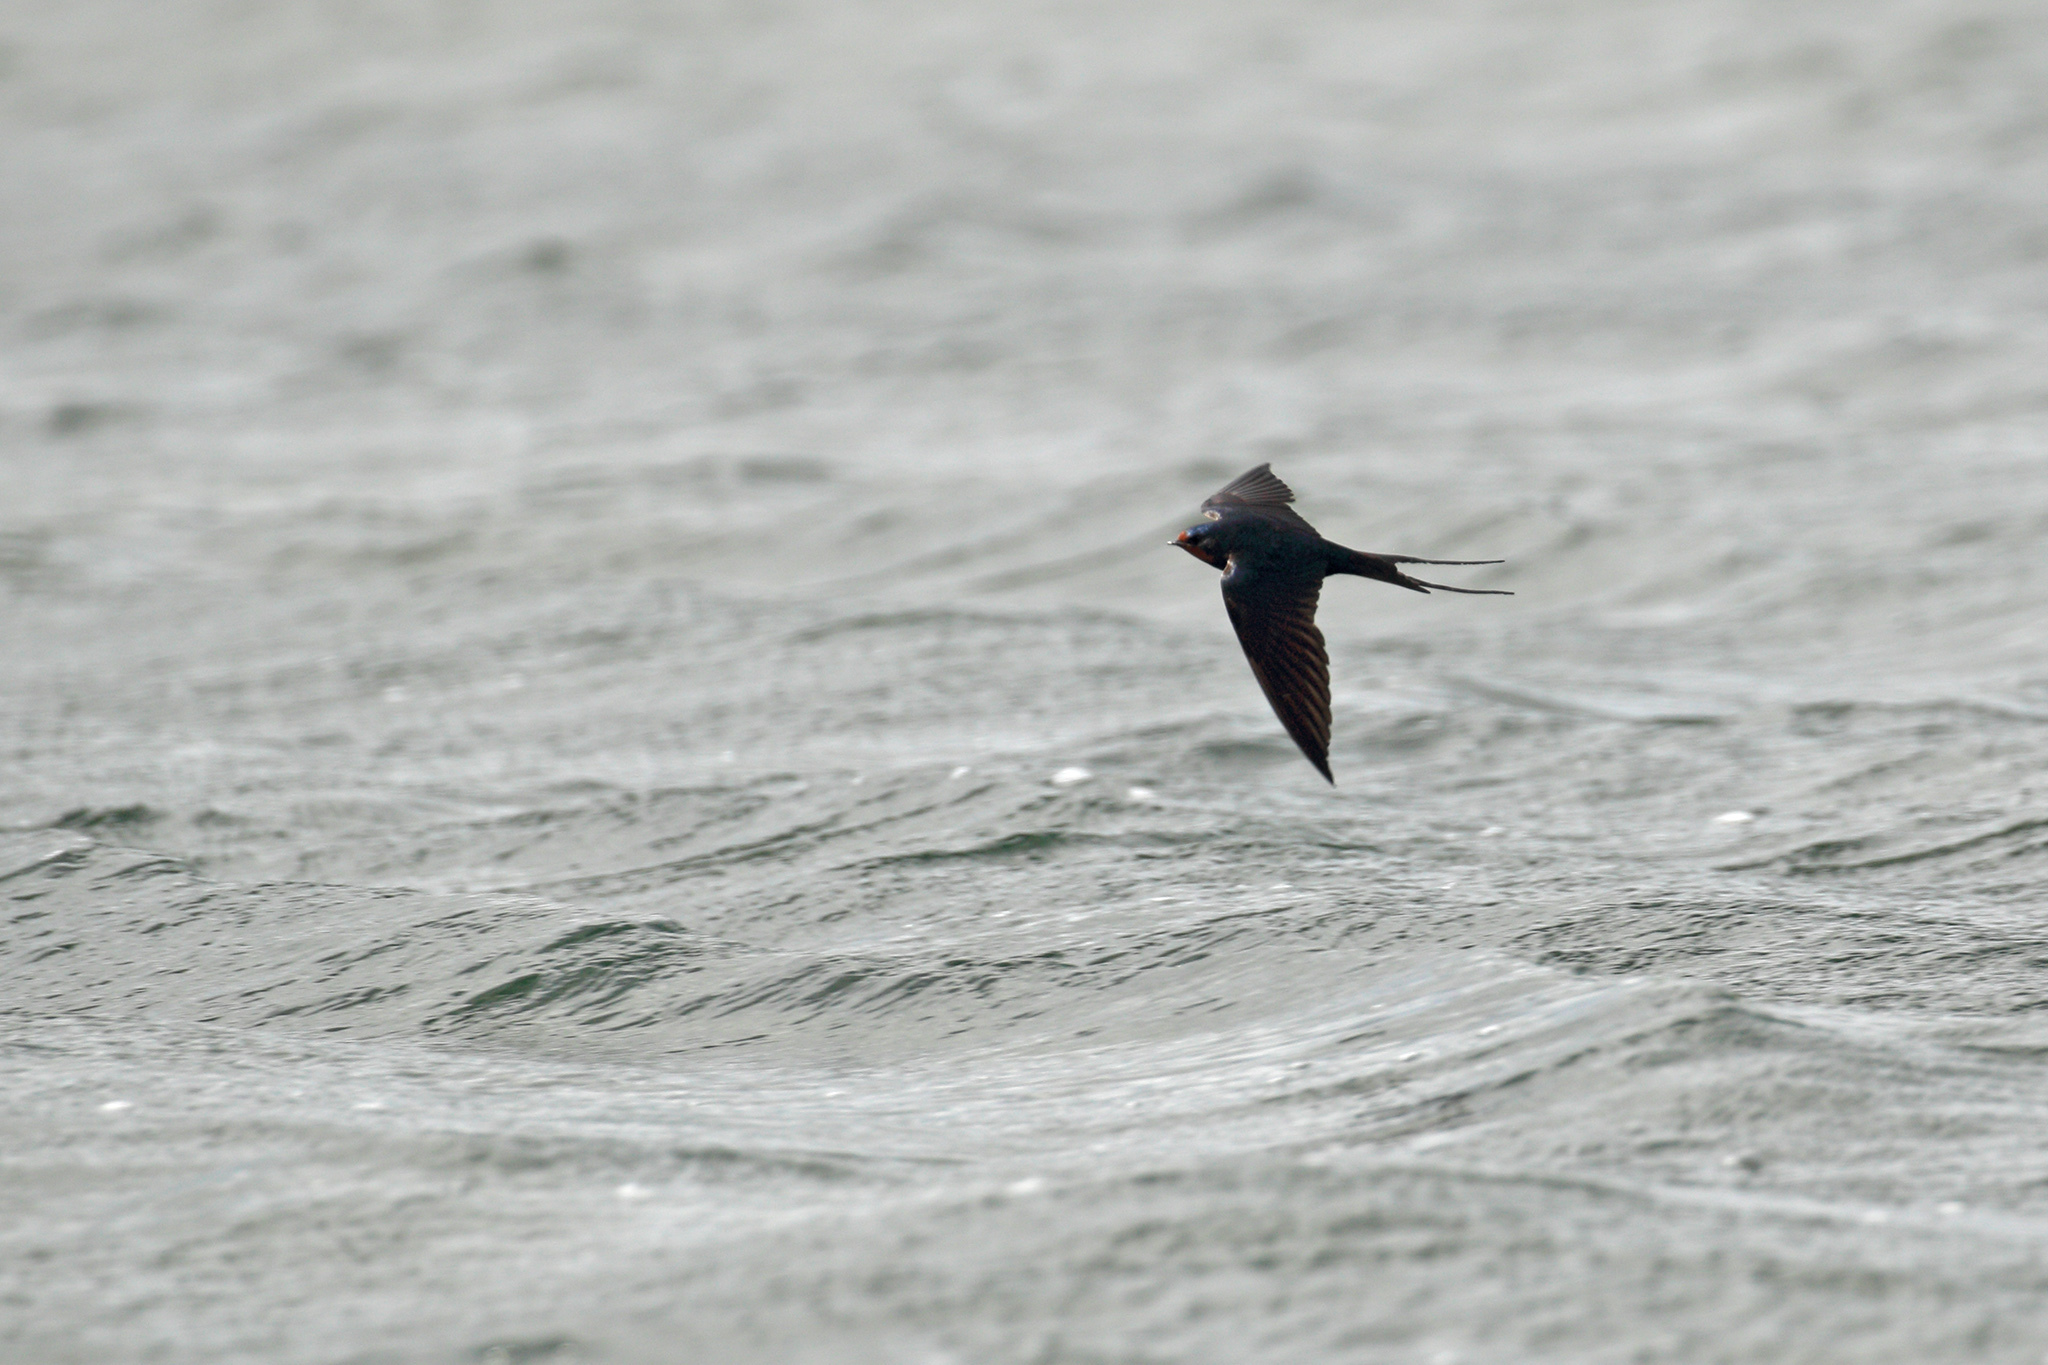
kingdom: Animalia
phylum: Chordata
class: Aves
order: Passeriformes
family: Hirundinidae
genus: Hirundo
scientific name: Hirundo rustica
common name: Barn swallow
